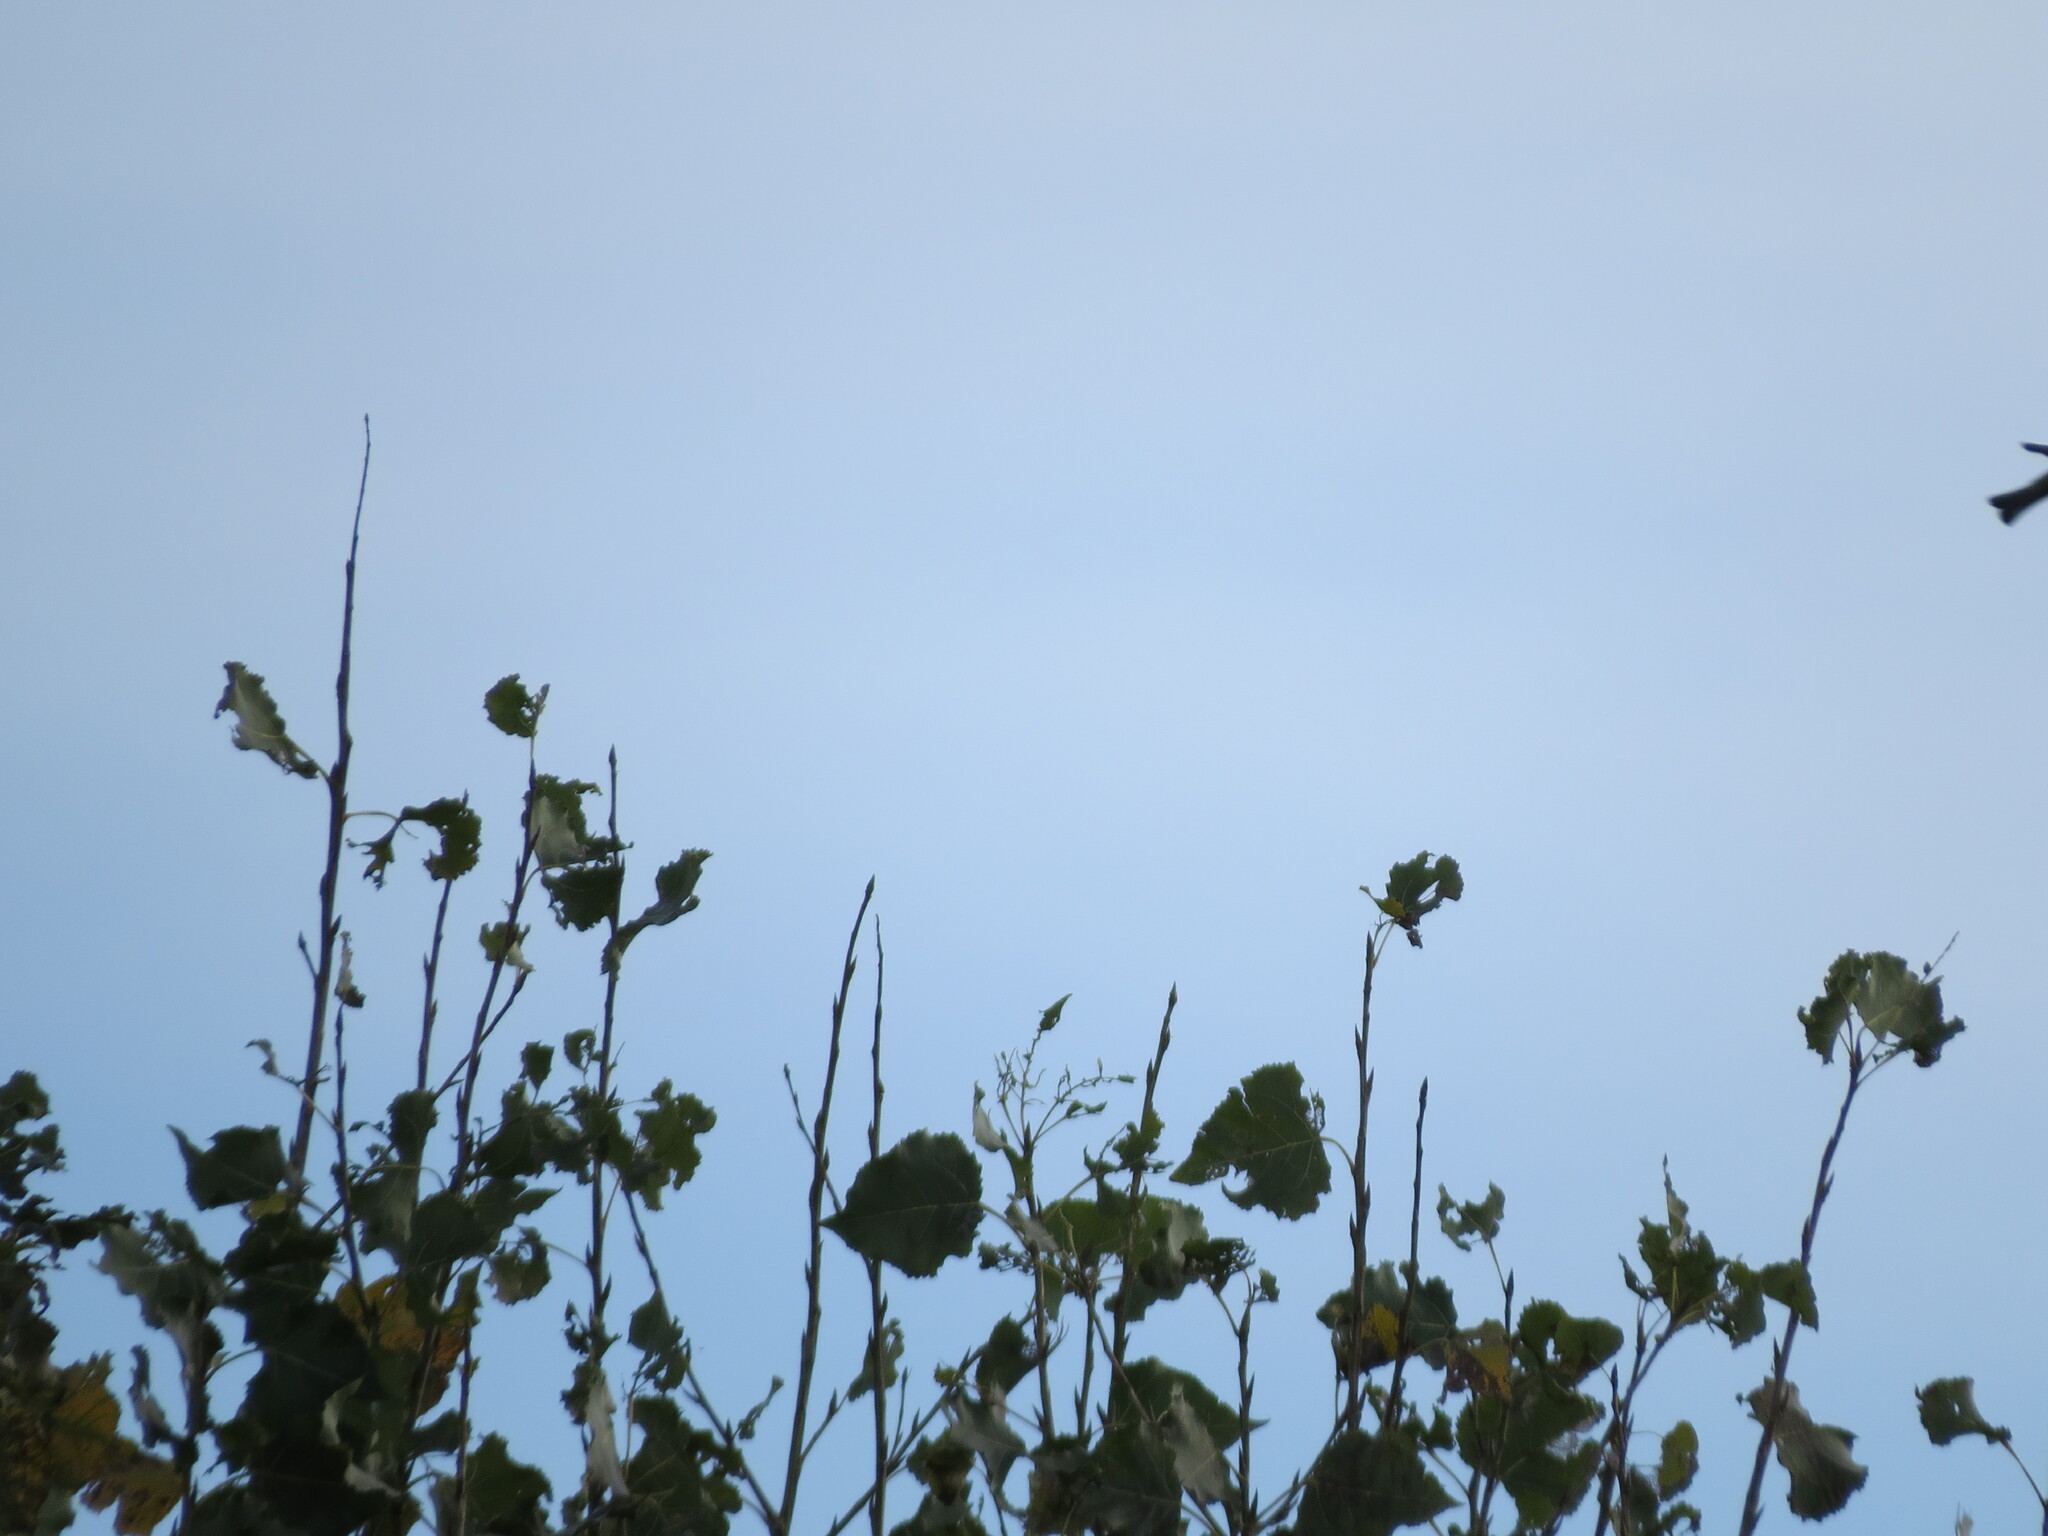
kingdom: Animalia
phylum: Chordata
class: Aves
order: Passeriformes
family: Fringillidae
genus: Fringilla
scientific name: Fringilla coelebs
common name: Common chaffinch
